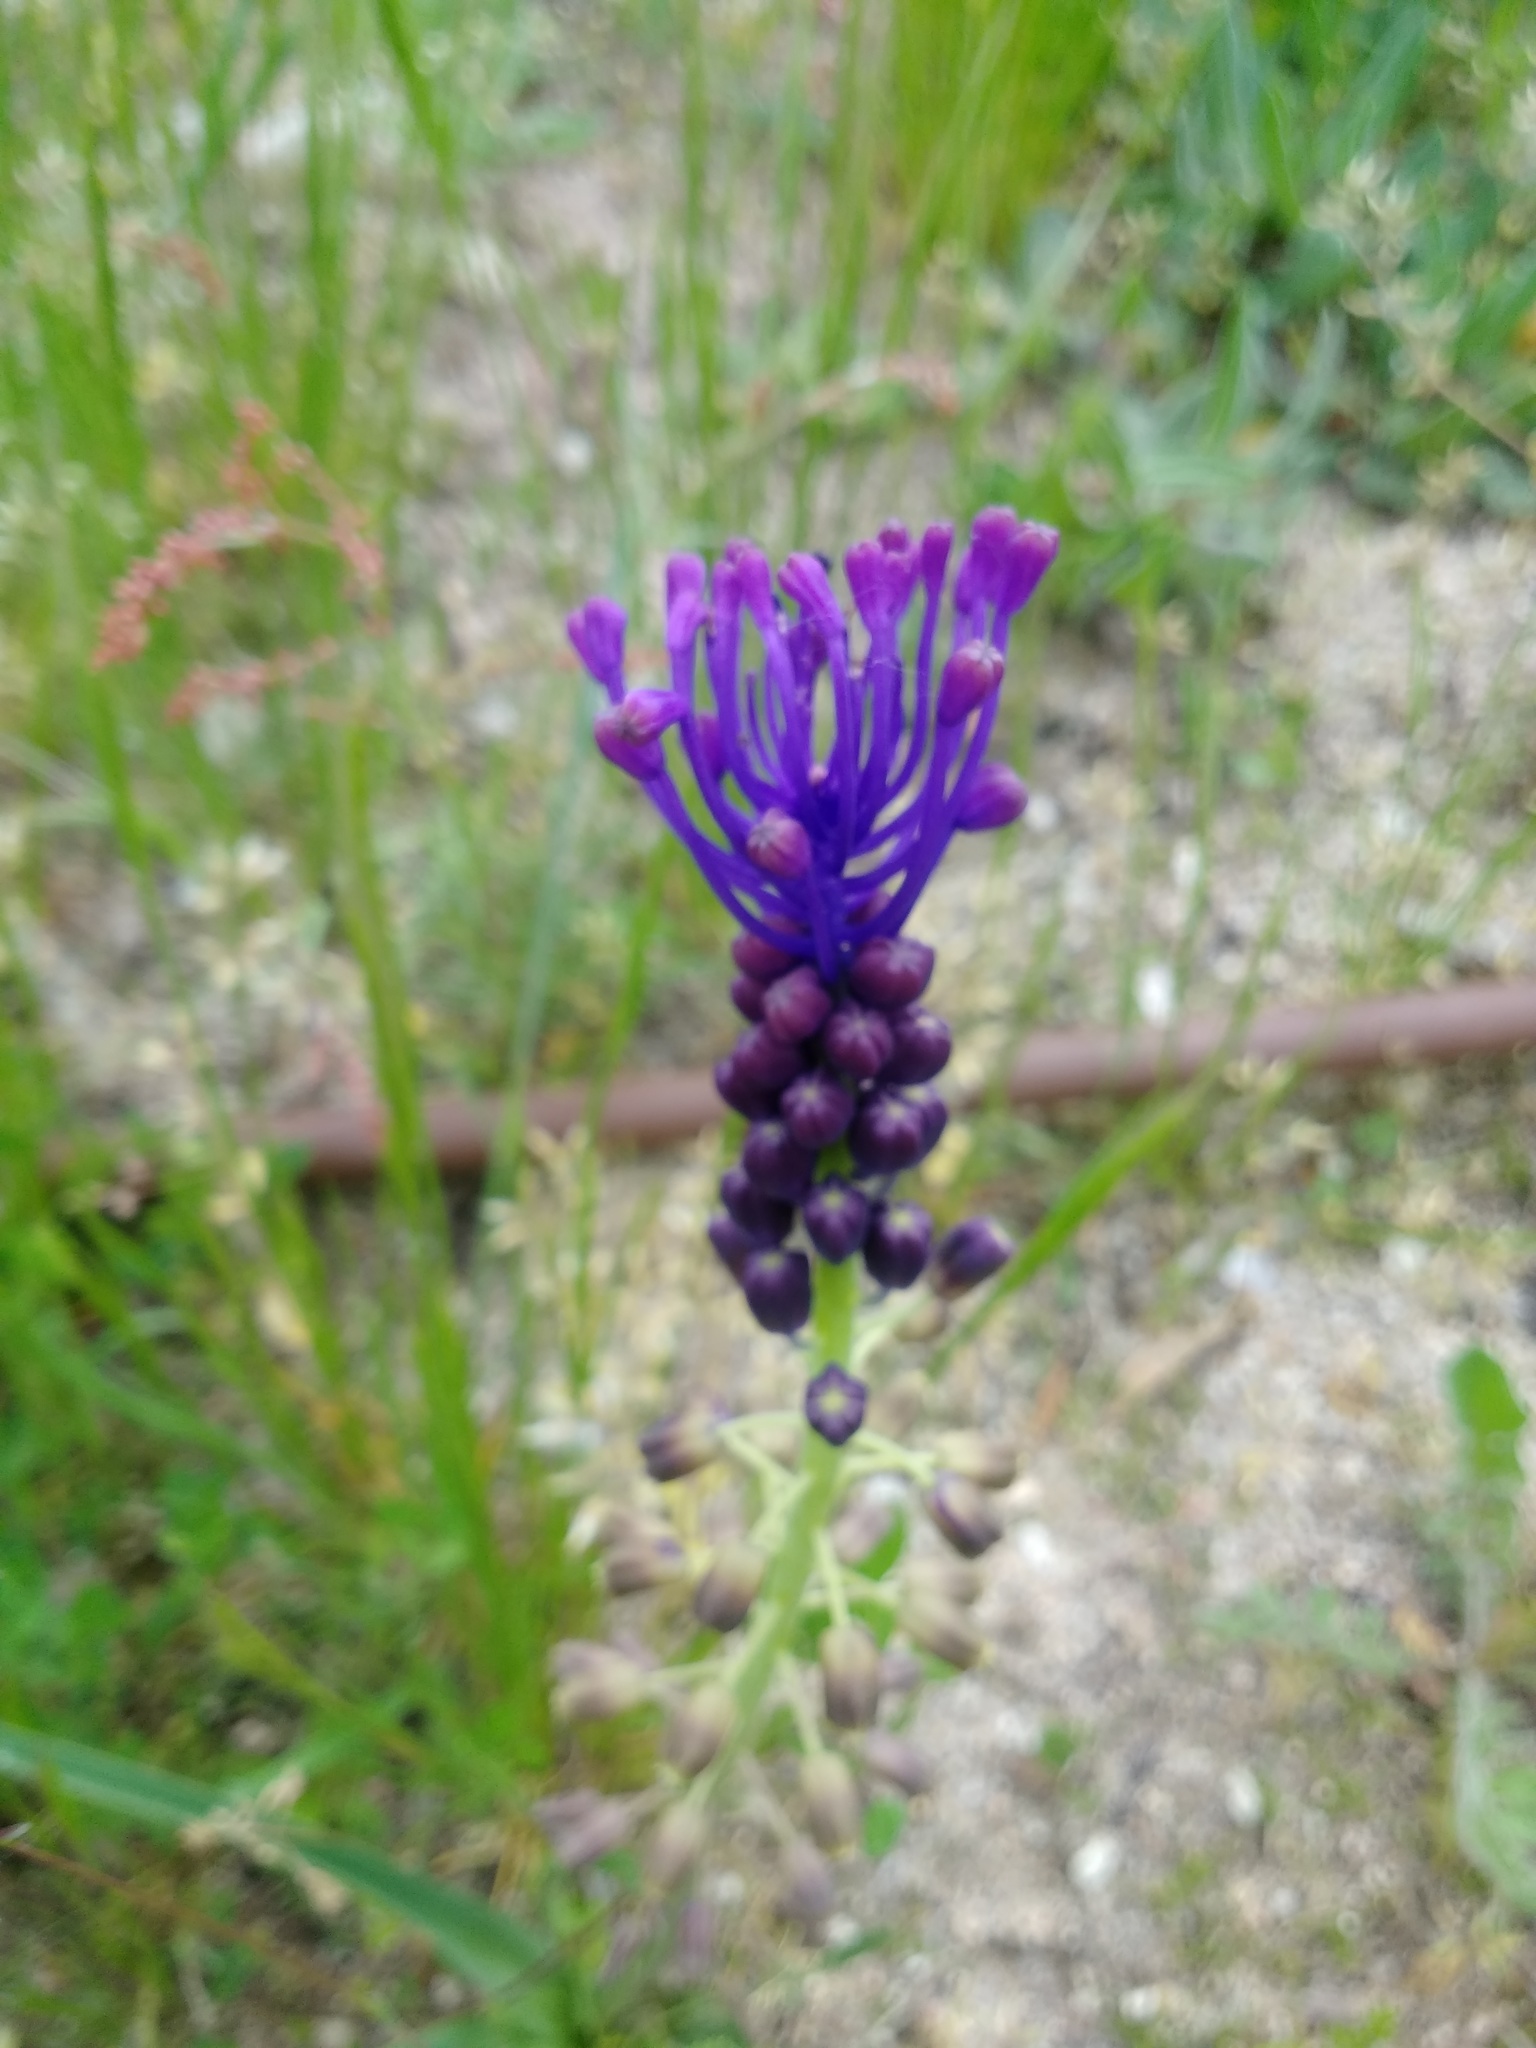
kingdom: Plantae
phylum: Tracheophyta
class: Liliopsida
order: Asparagales
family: Asparagaceae
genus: Muscari
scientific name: Muscari comosum
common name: Tassel hyacinth
